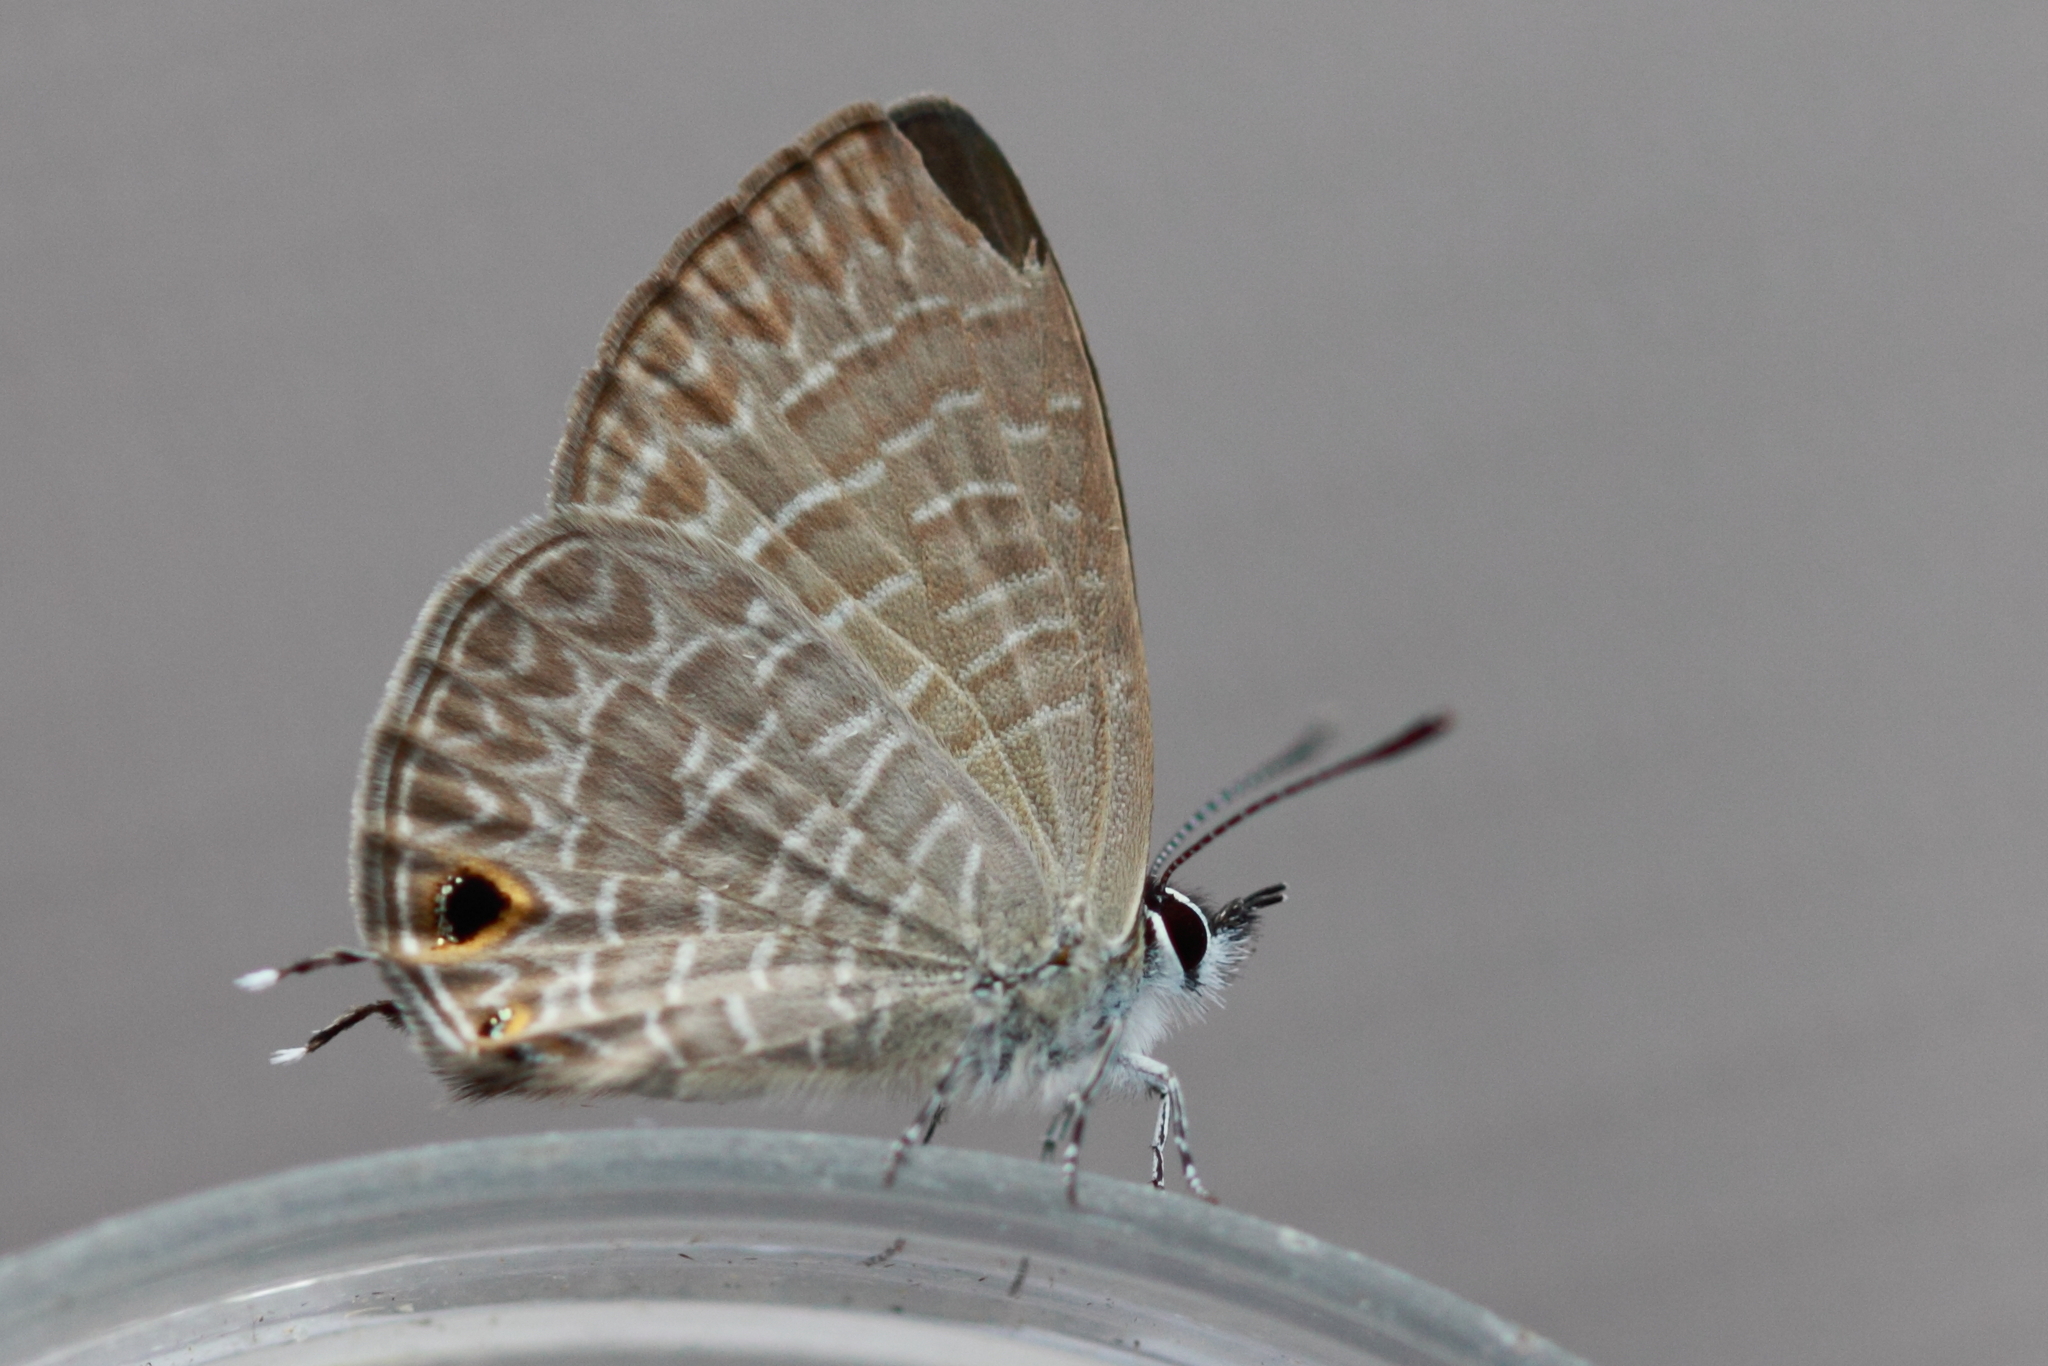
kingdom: Animalia
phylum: Arthropoda
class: Insecta
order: Lepidoptera
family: Lycaenidae
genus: Nacaduba
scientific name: Nacaduba berenice
